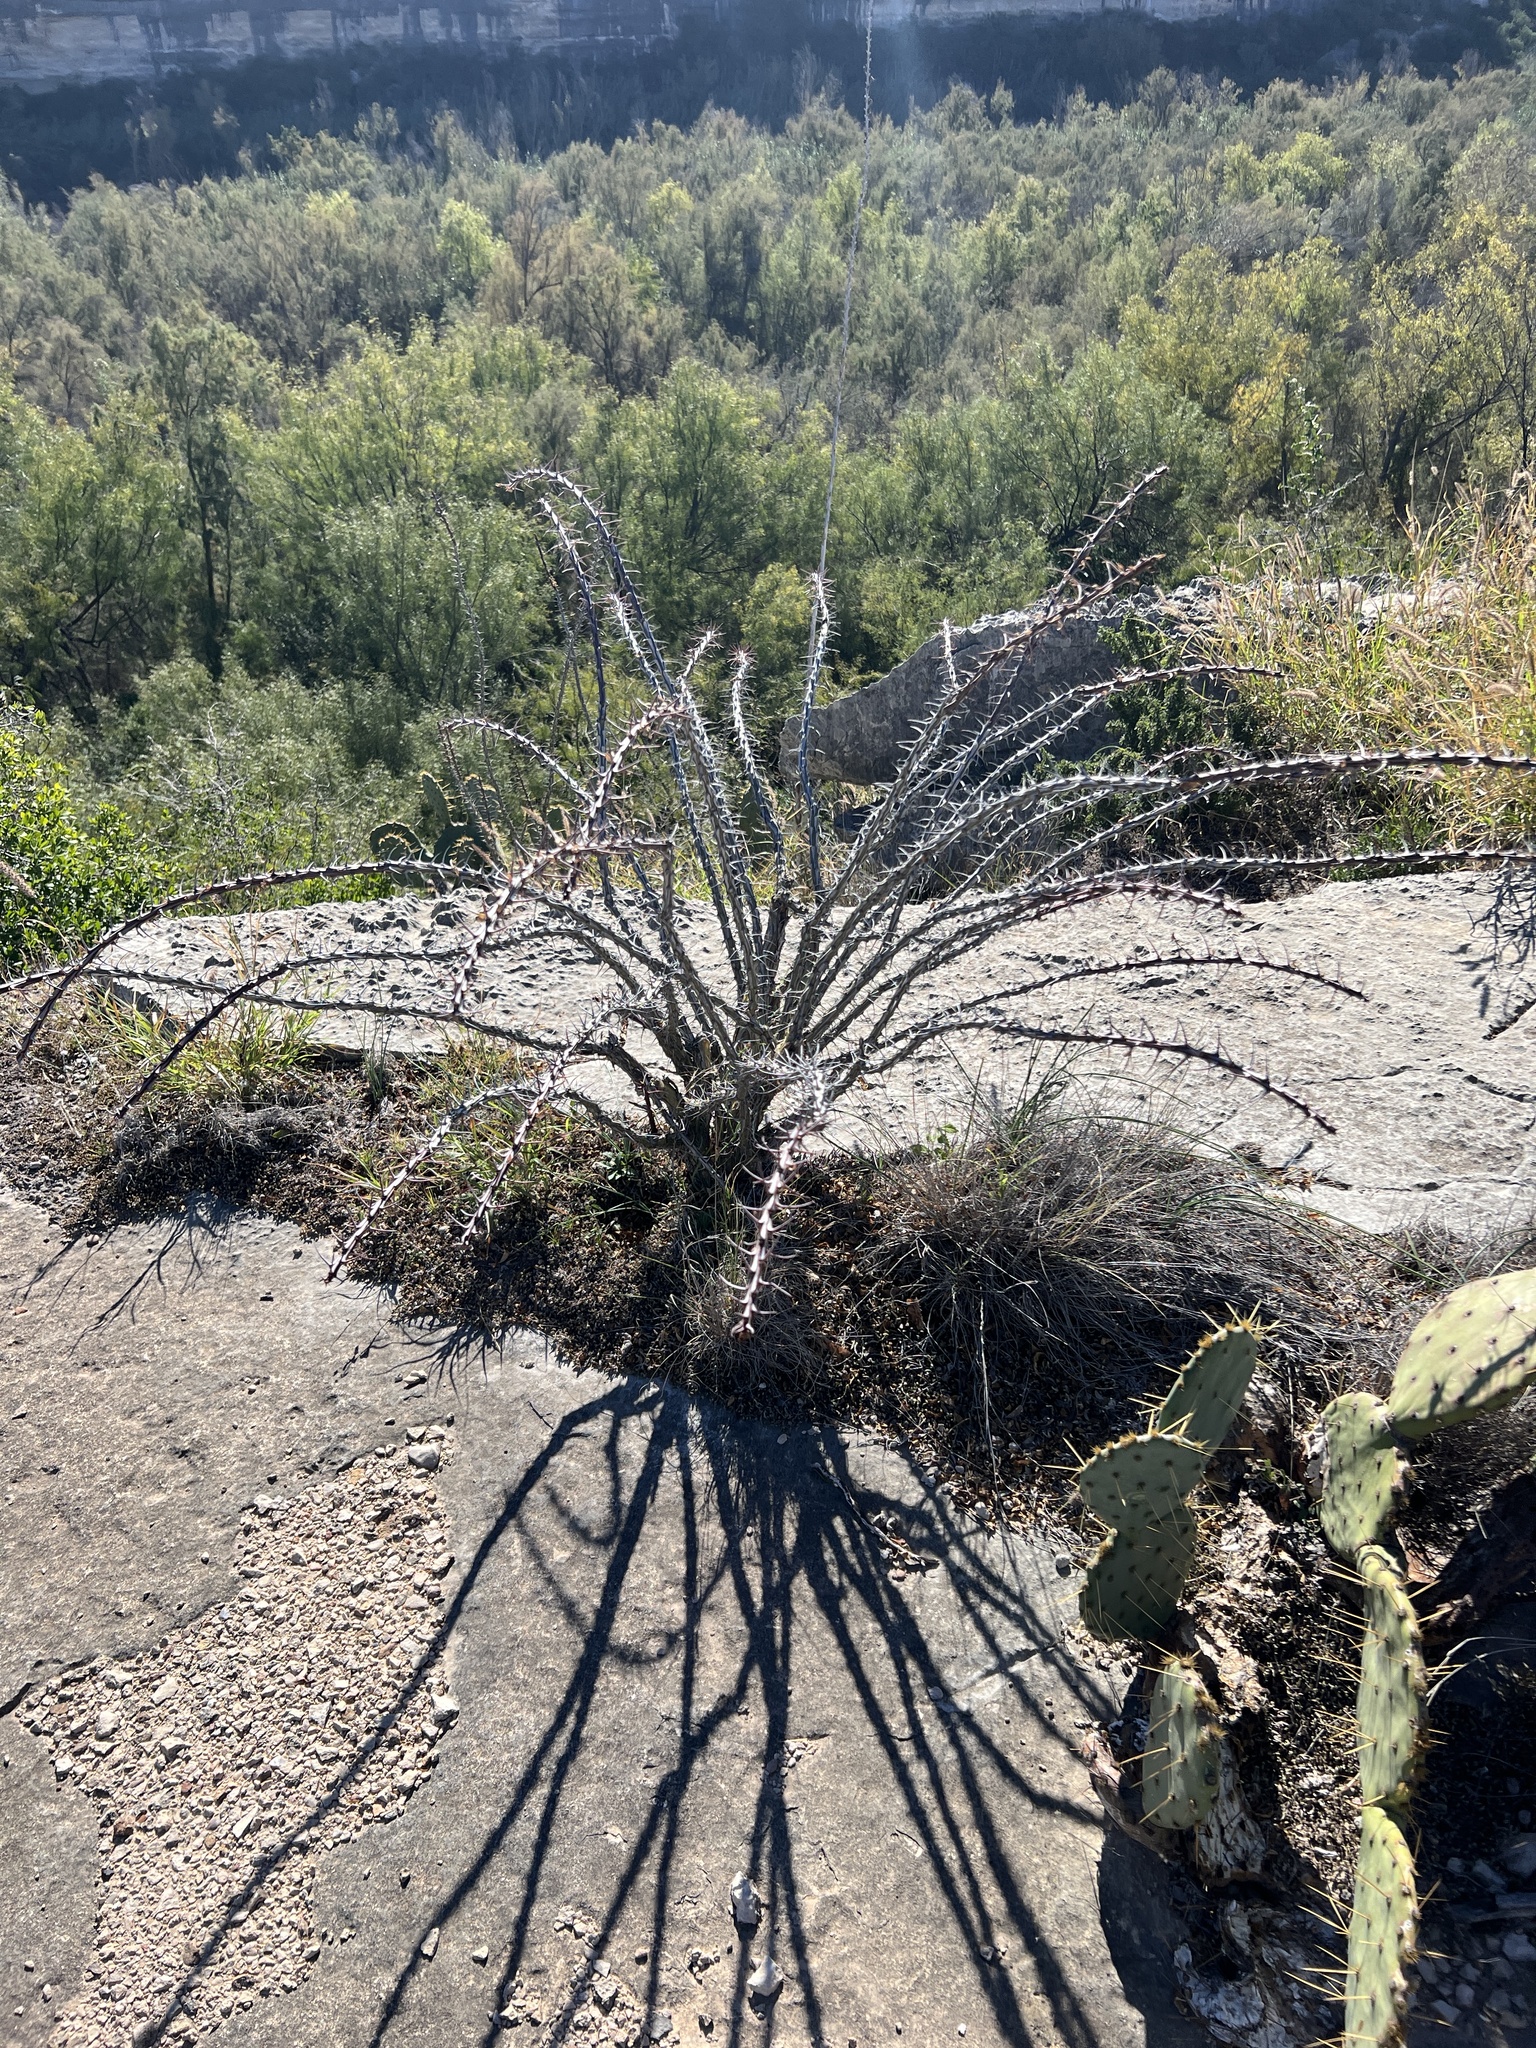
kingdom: Plantae
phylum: Tracheophyta
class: Magnoliopsida
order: Ericales
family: Fouquieriaceae
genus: Fouquieria
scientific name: Fouquieria splendens
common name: Vine-cactus
